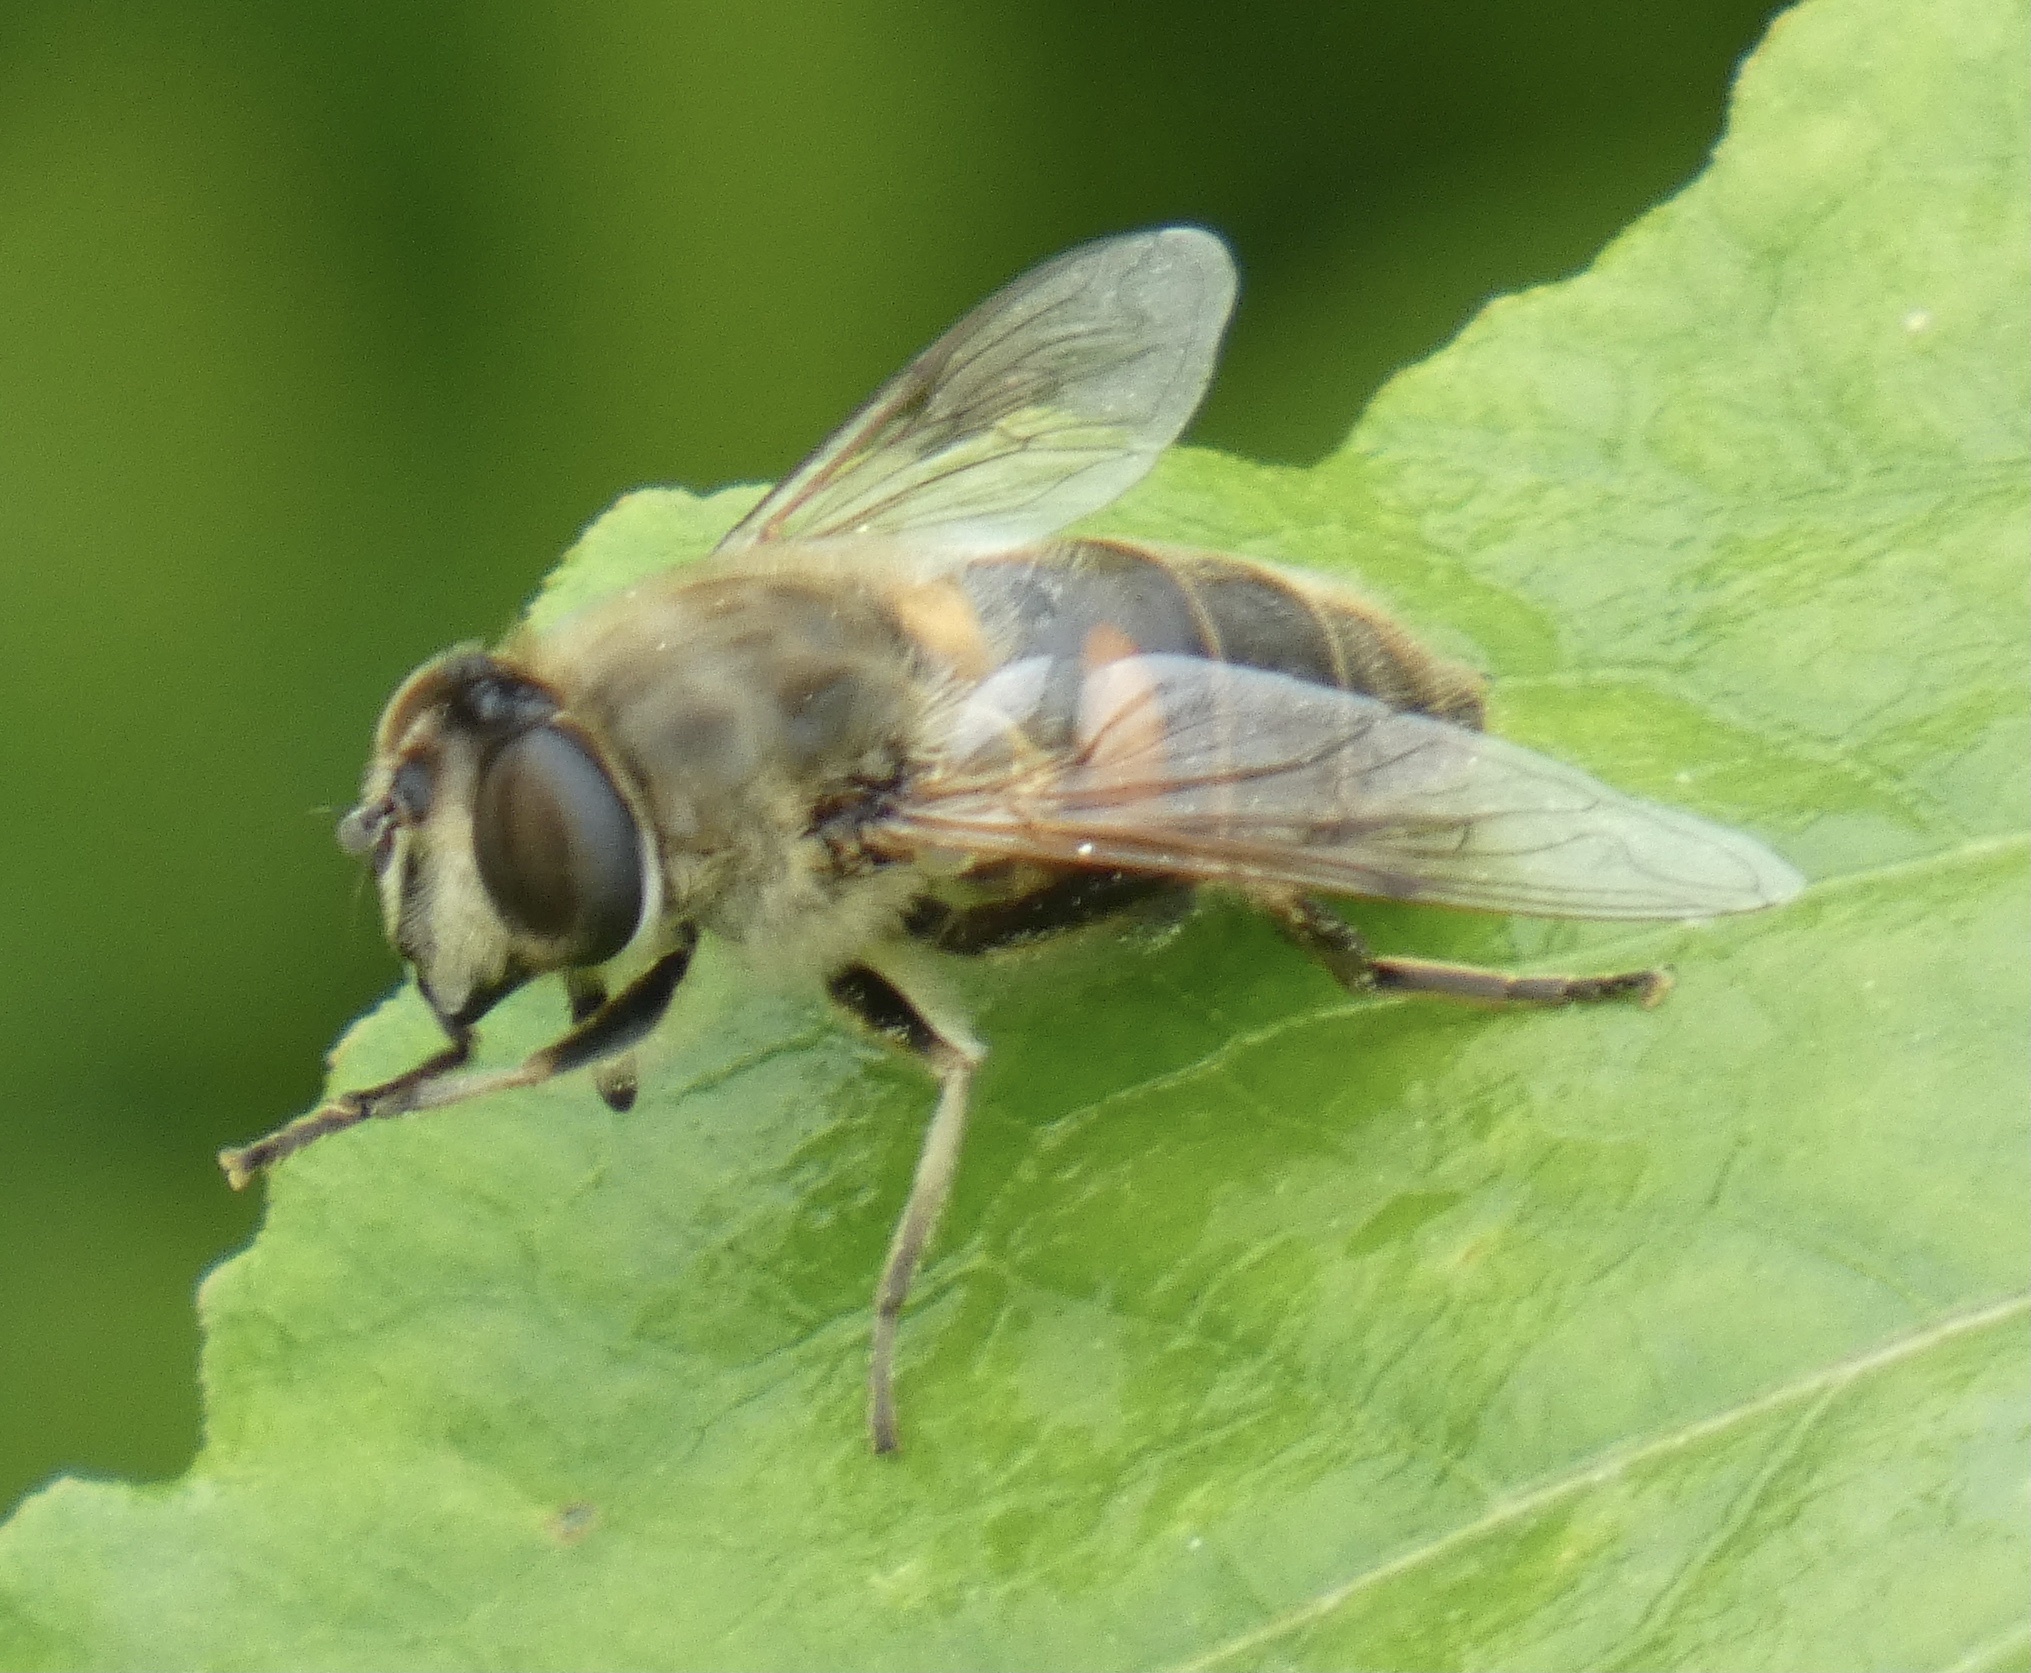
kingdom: Animalia
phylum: Arthropoda
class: Insecta
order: Diptera
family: Syrphidae
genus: Eristalis
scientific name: Eristalis tenax
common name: Drone fly
